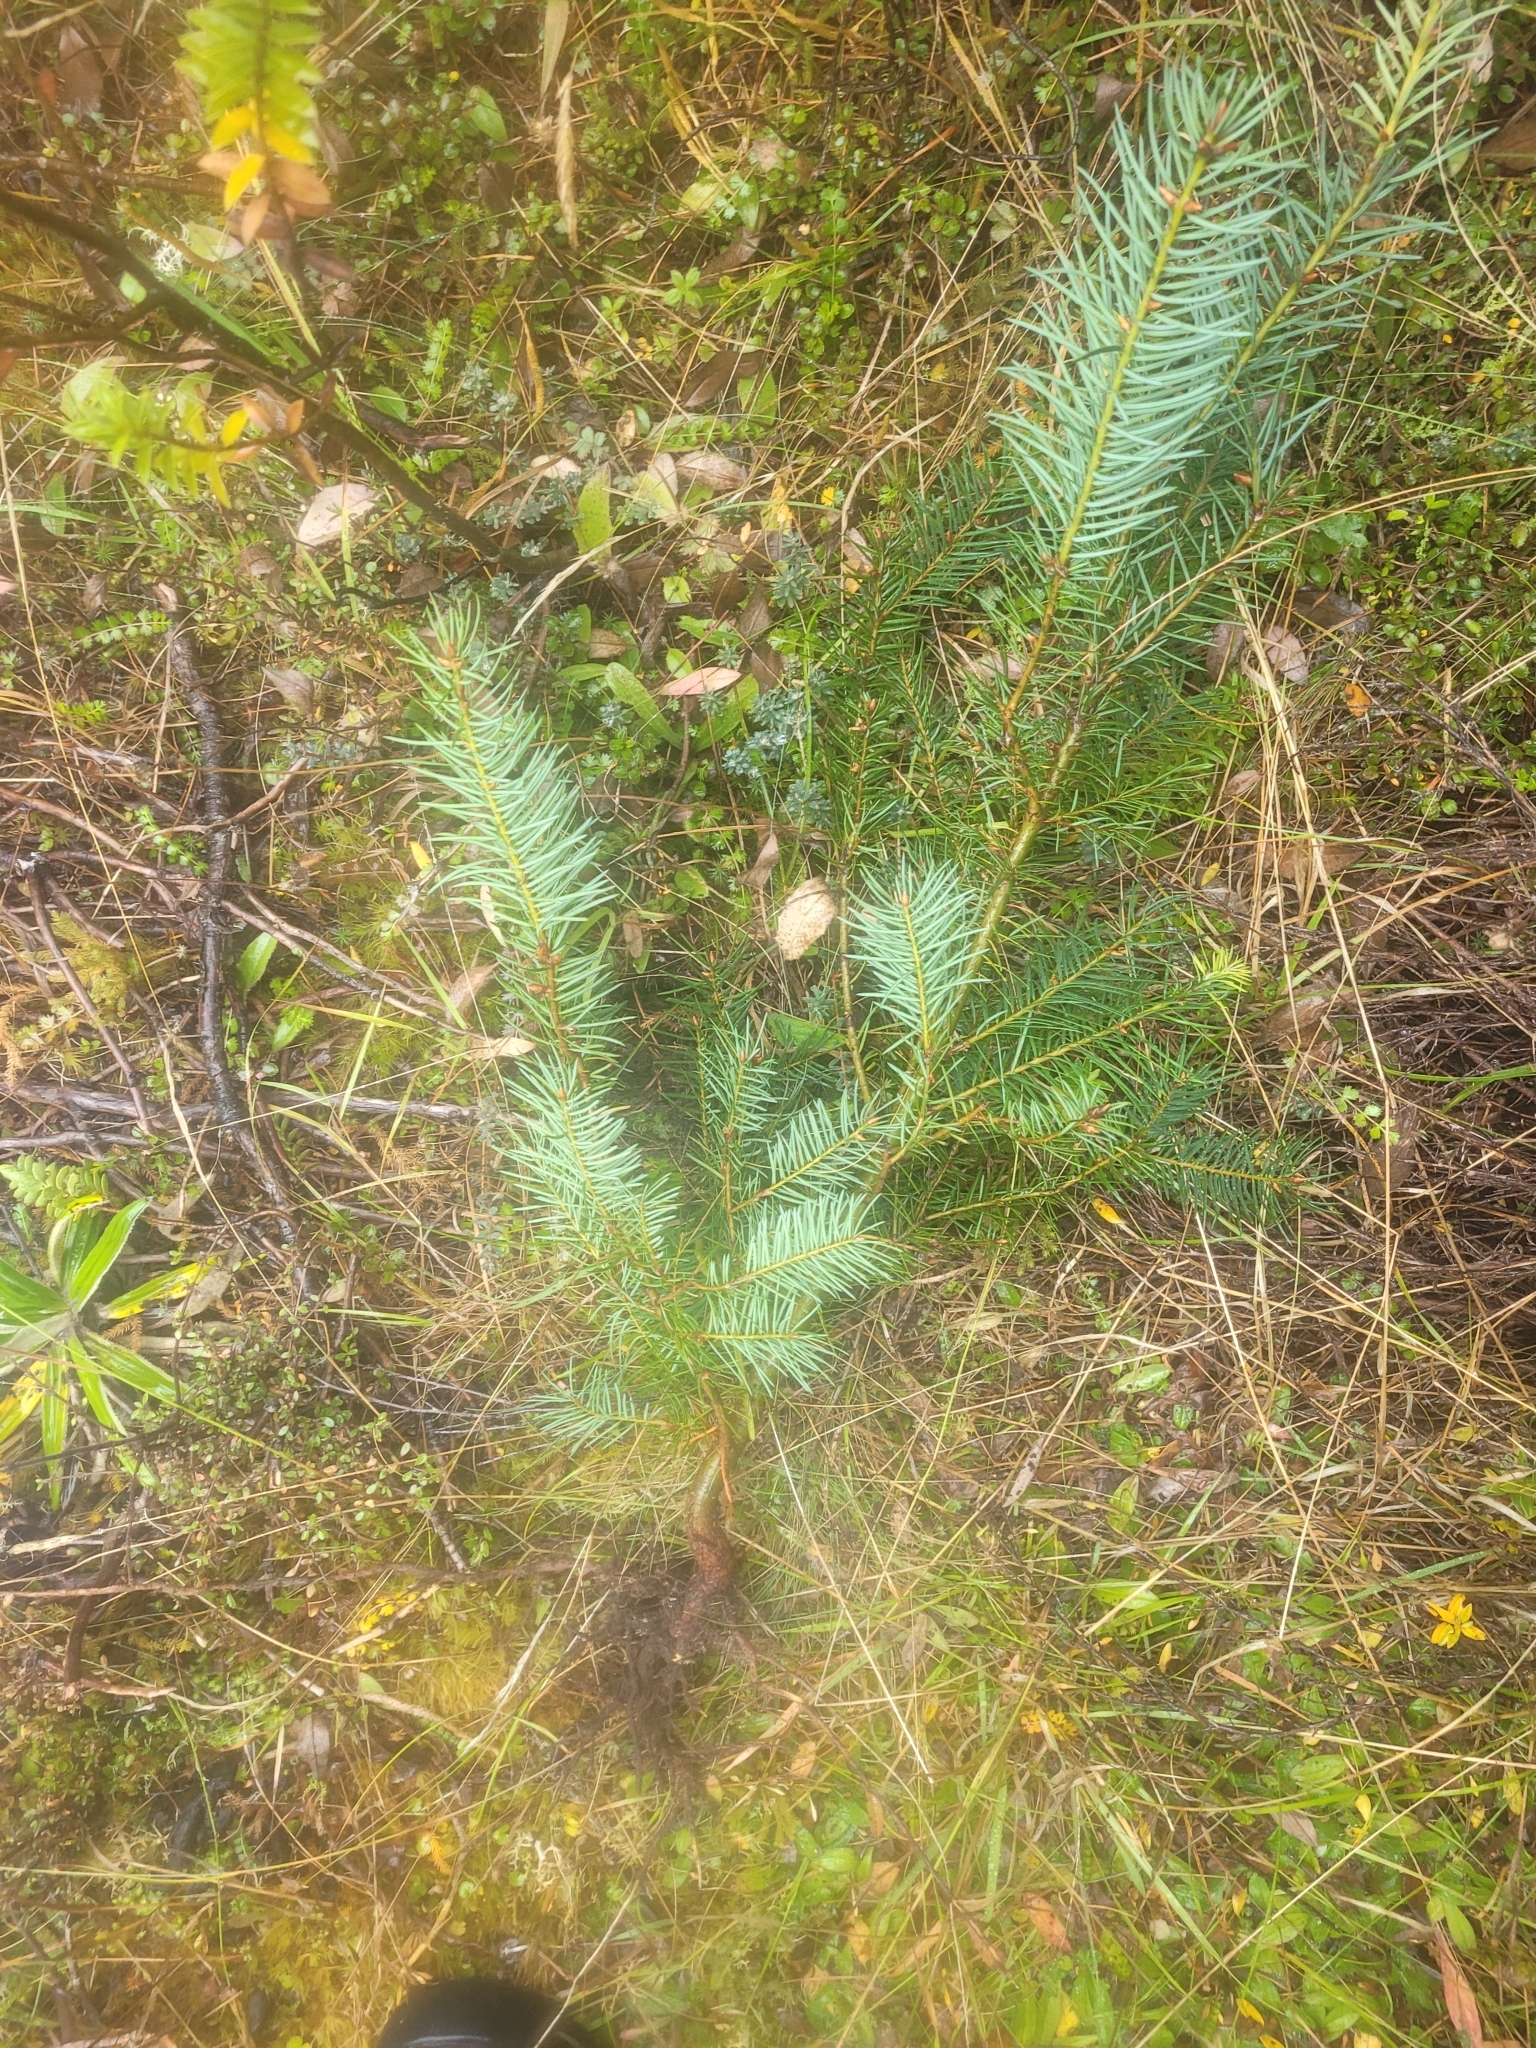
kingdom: Plantae
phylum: Tracheophyta
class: Pinopsida
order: Pinales
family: Pinaceae
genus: Pseudotsuga
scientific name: Pseudotsuga menziesii
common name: Douglas fir
